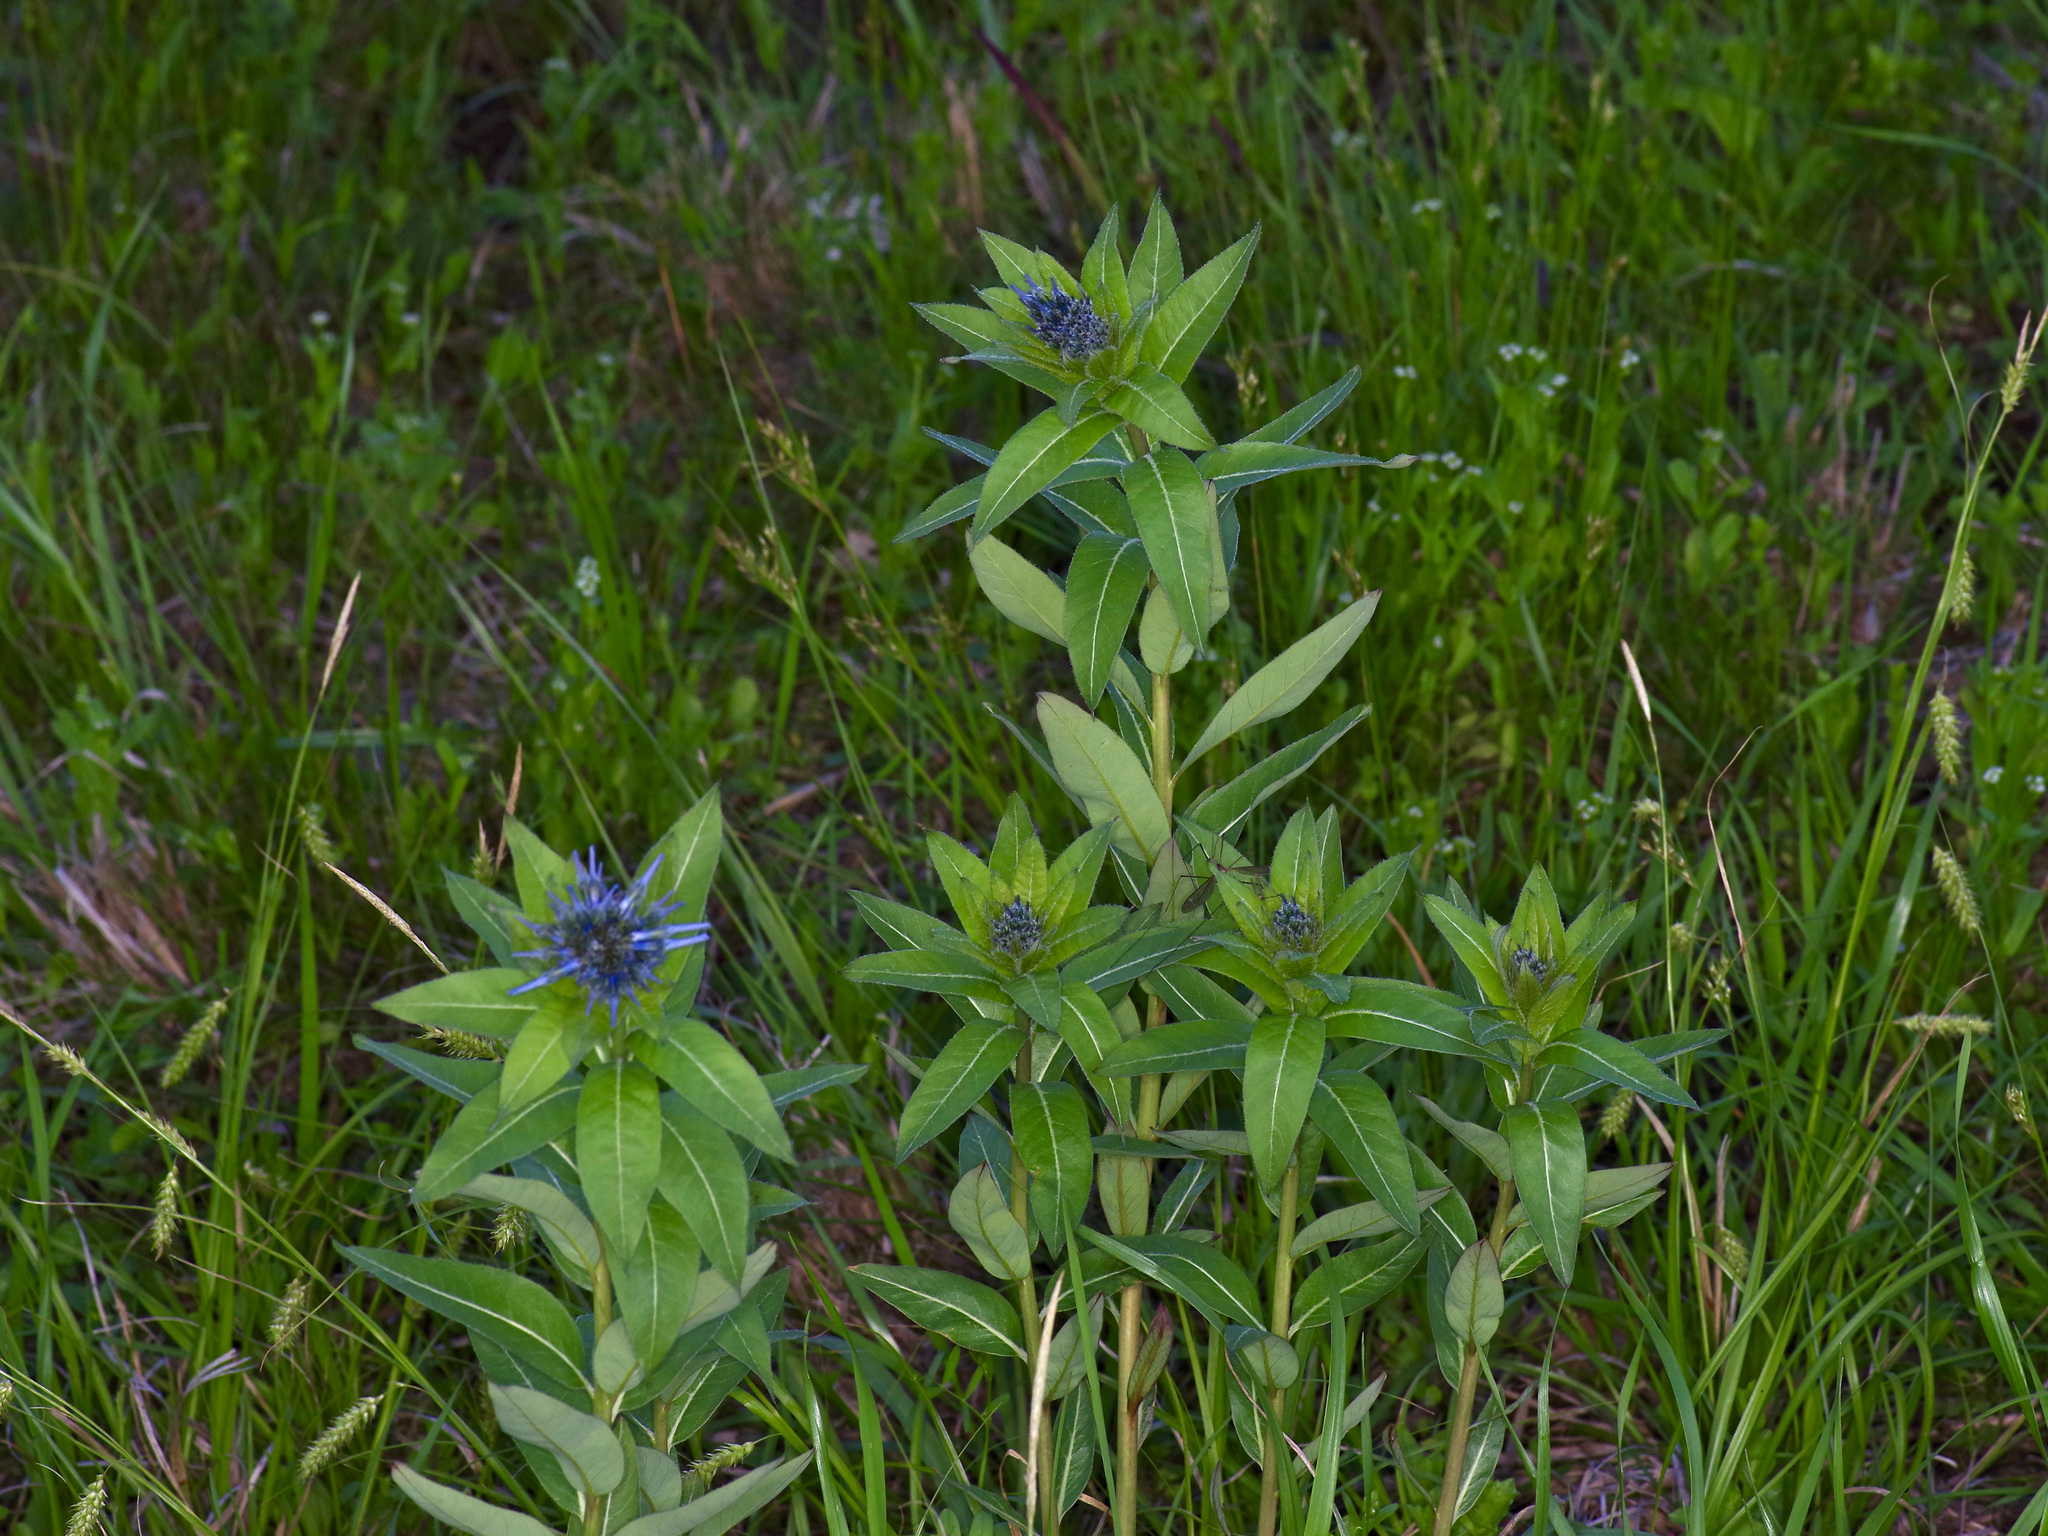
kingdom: Plantae
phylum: Tracheophyta
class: Magnoliopsida
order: Gentianales
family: Apocynaceae
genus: Amsonia
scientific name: Amsonia tabernaemontana
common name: Texas-star
